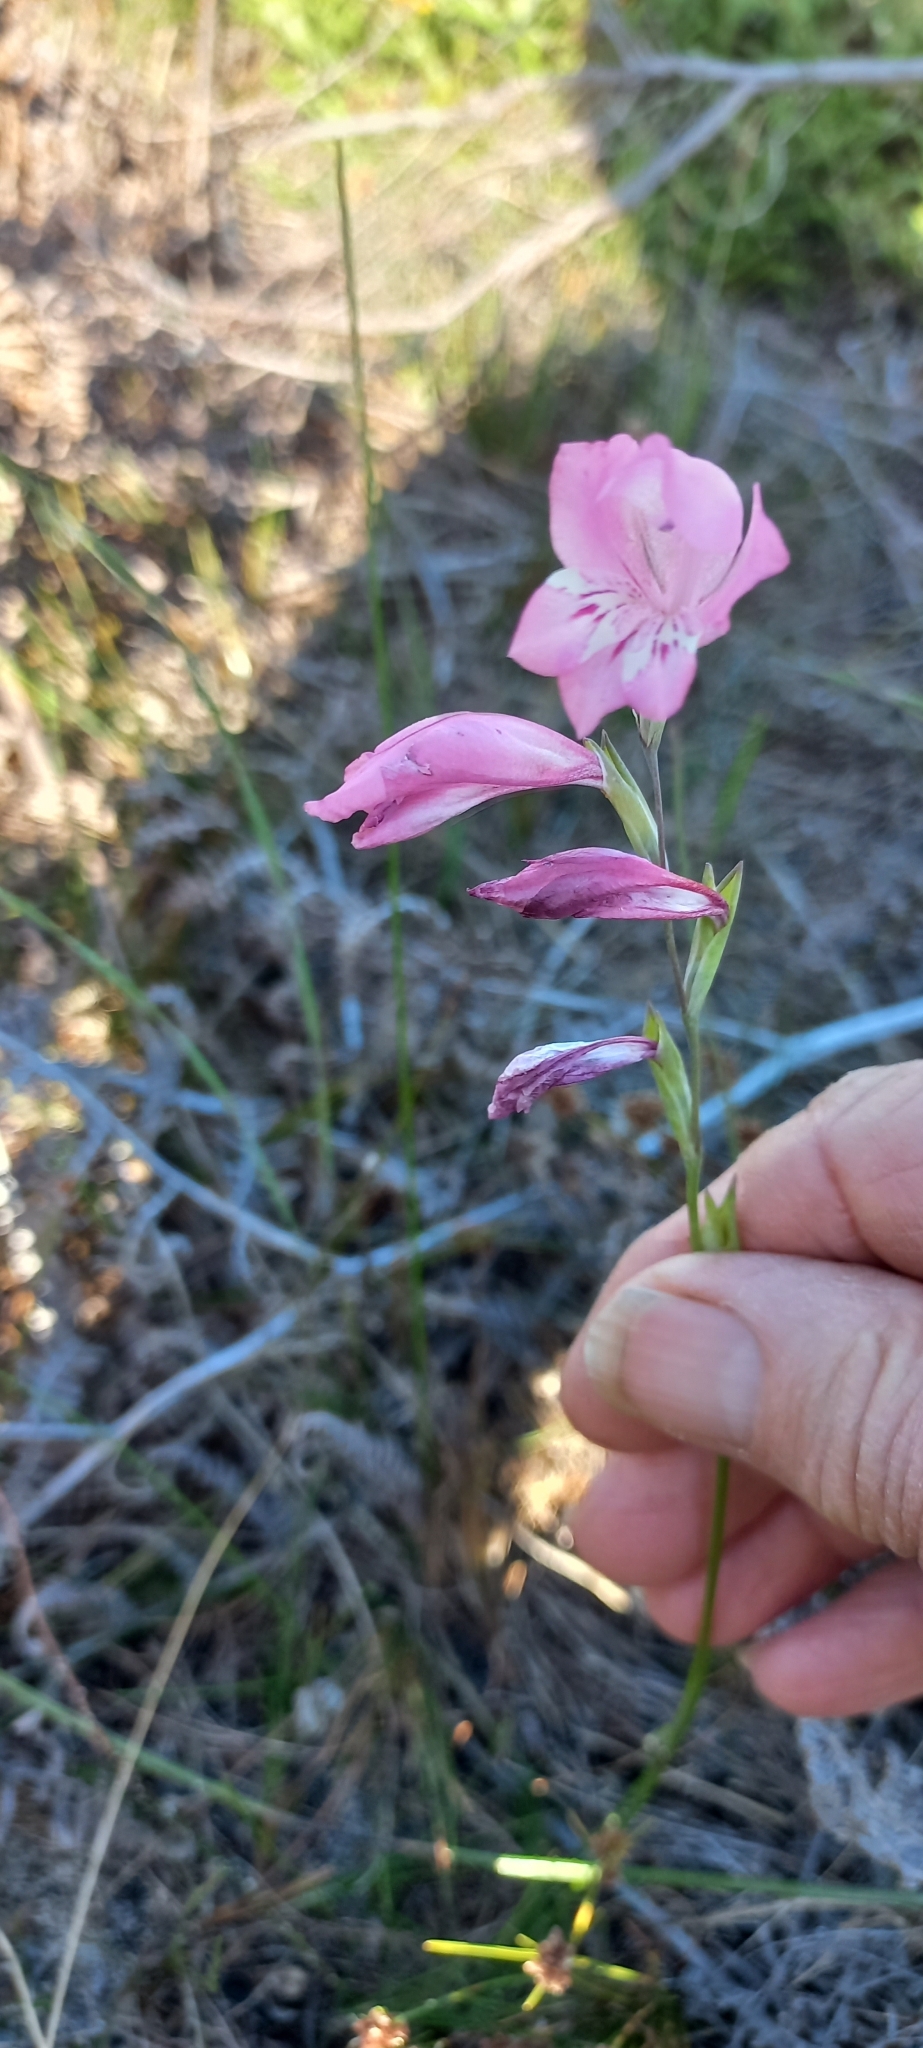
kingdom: Plantae
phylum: Tracheophyta
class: Liliopsida
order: Asparagales
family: Iridaceae
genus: Gladiolus
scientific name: Gladiolus brevifolius
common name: March pypie
